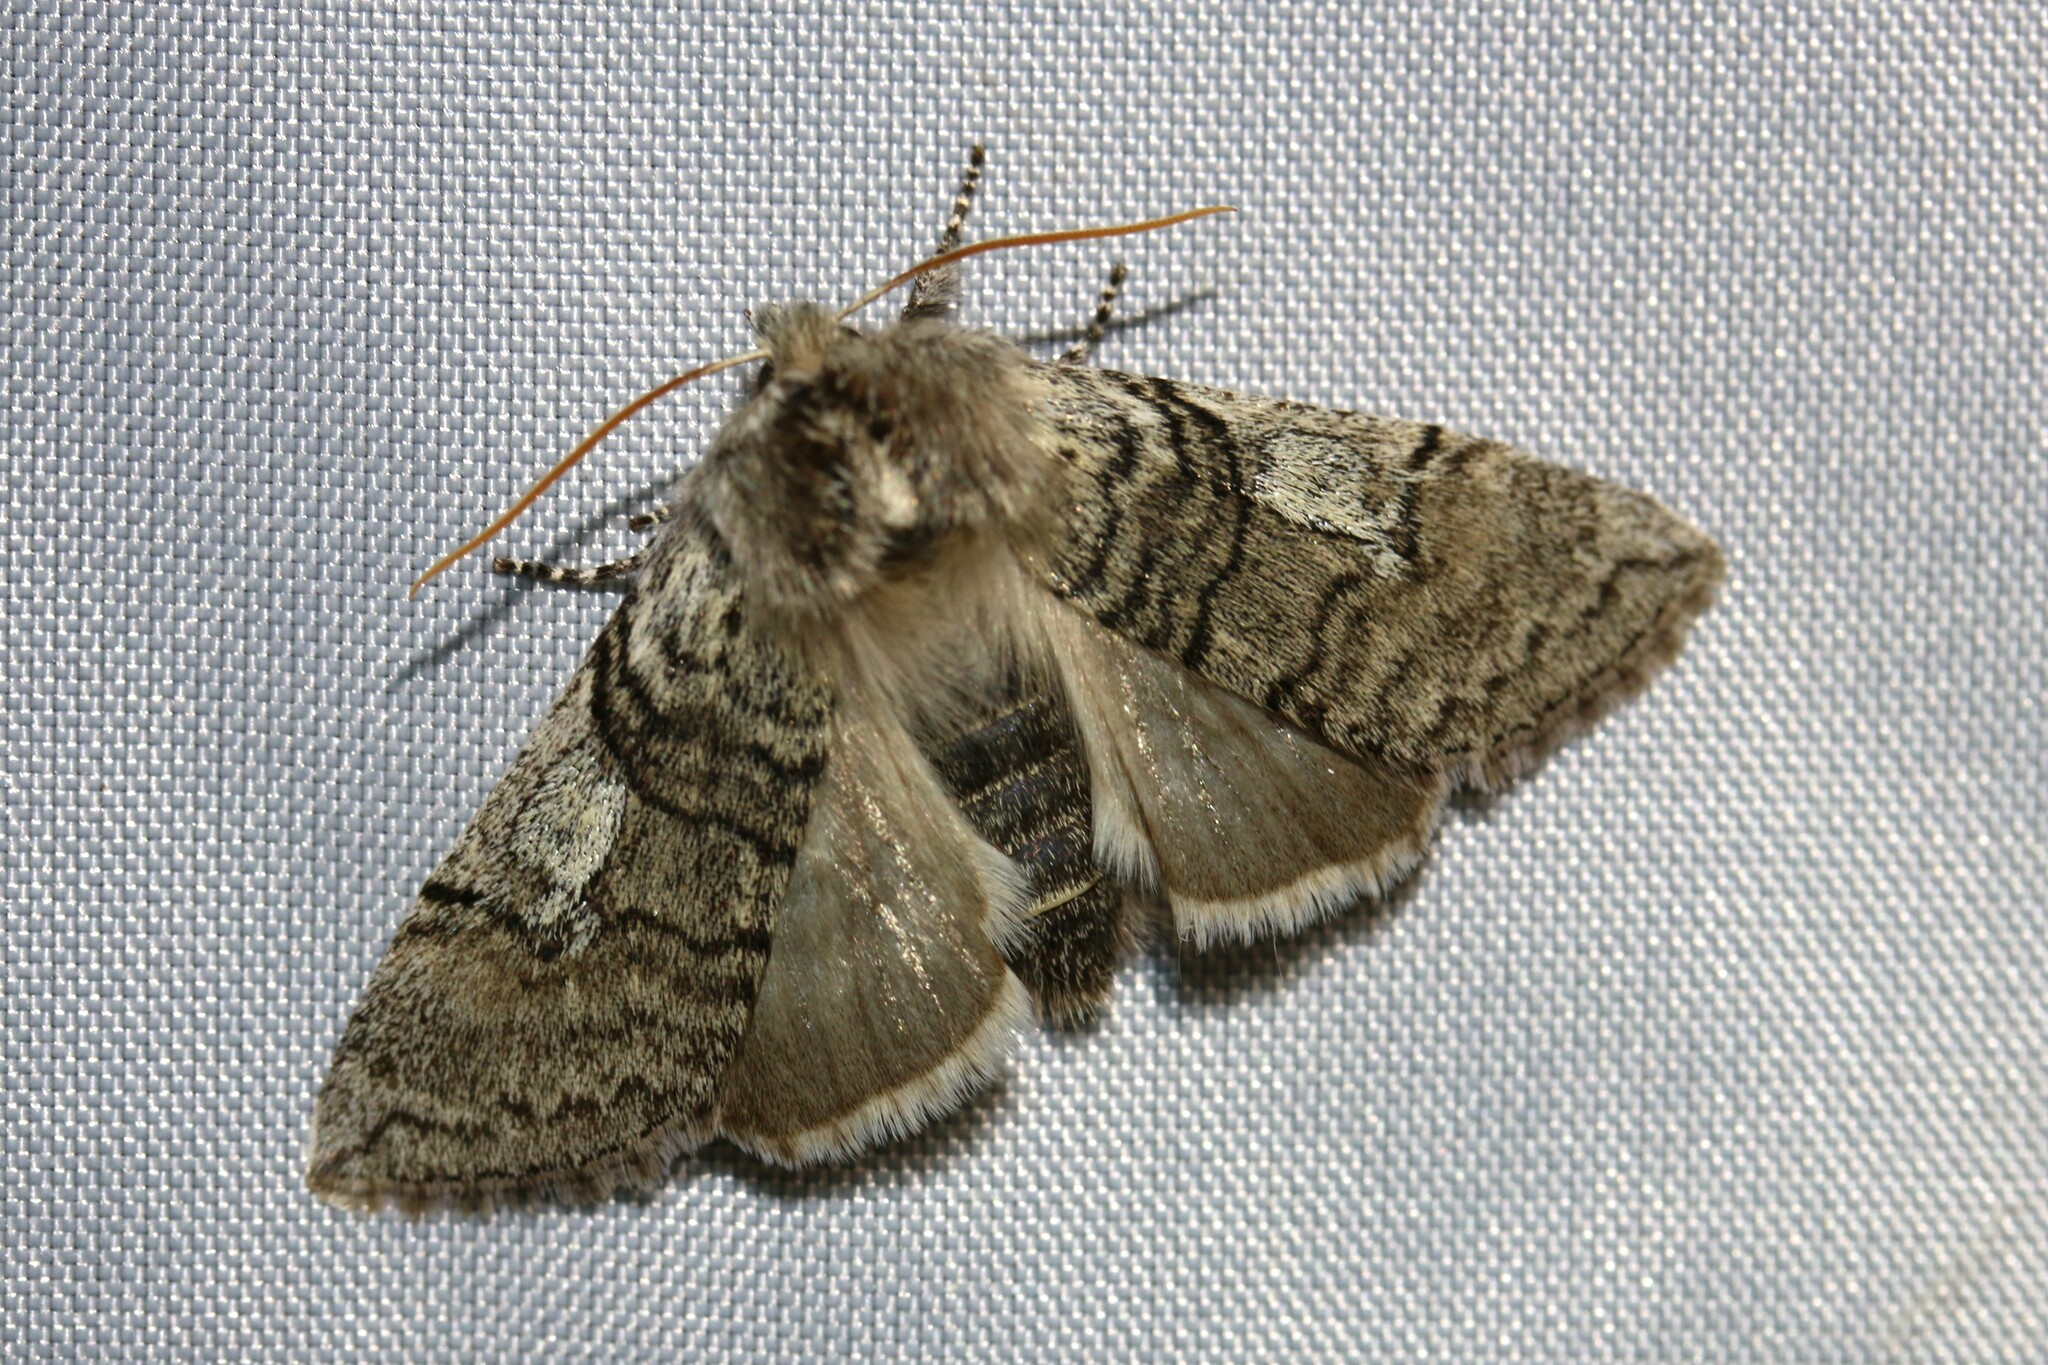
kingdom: Animalia
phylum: Arthropoda
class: Insecta
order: Lepidoptera
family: Drepanidae
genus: Achlya
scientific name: Achlya flavicornis
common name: Yellow horned
